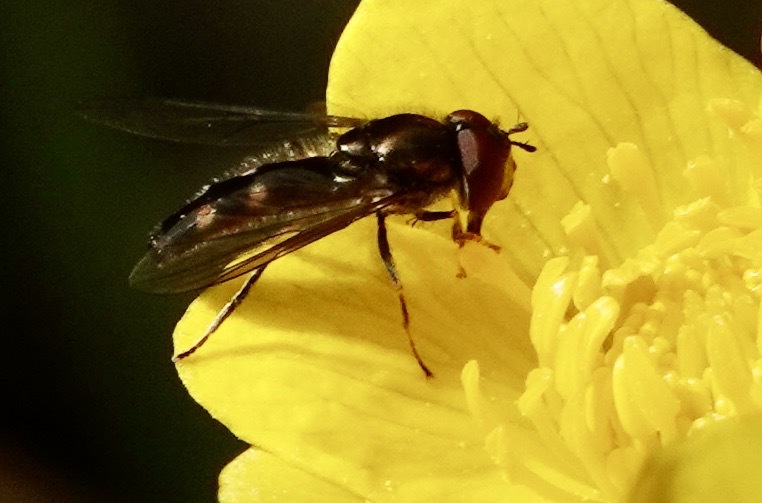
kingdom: Animalia
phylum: Arthropoda
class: Insecta
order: Diptera
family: Syrphidae
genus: Platycheirus
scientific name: Platycheirus albimanus
